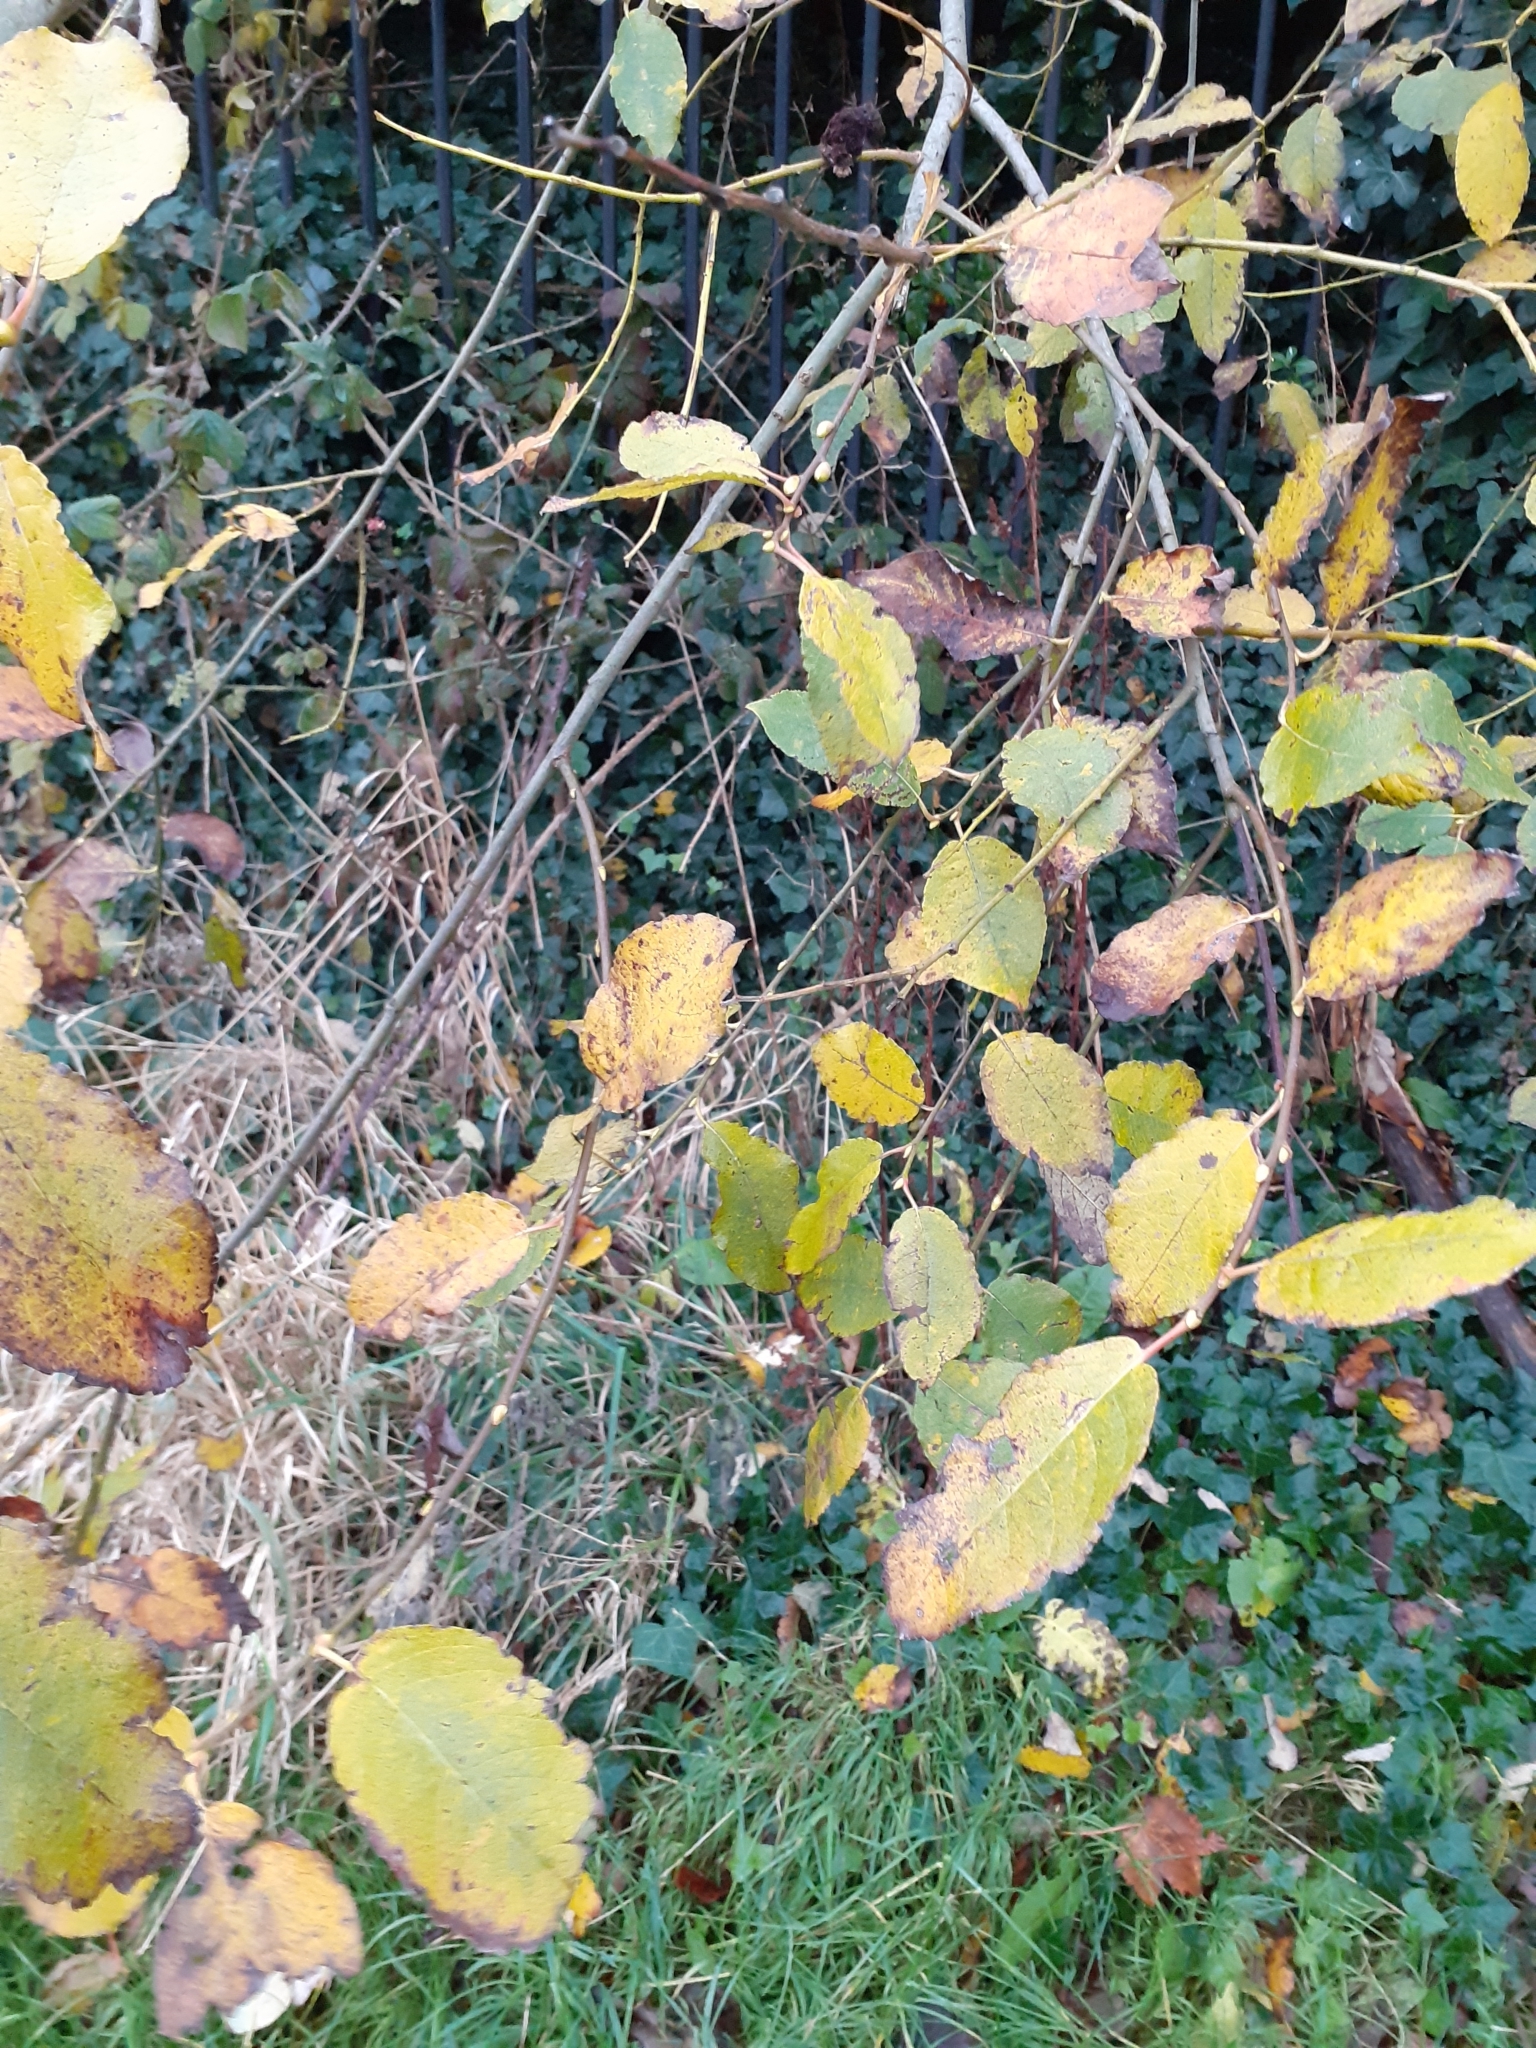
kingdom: Plantae
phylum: Tracheophyta
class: Magnoliopsida
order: Malpighiales
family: Salicaceae
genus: Salix
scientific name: Salix caprea
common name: Goat willow
